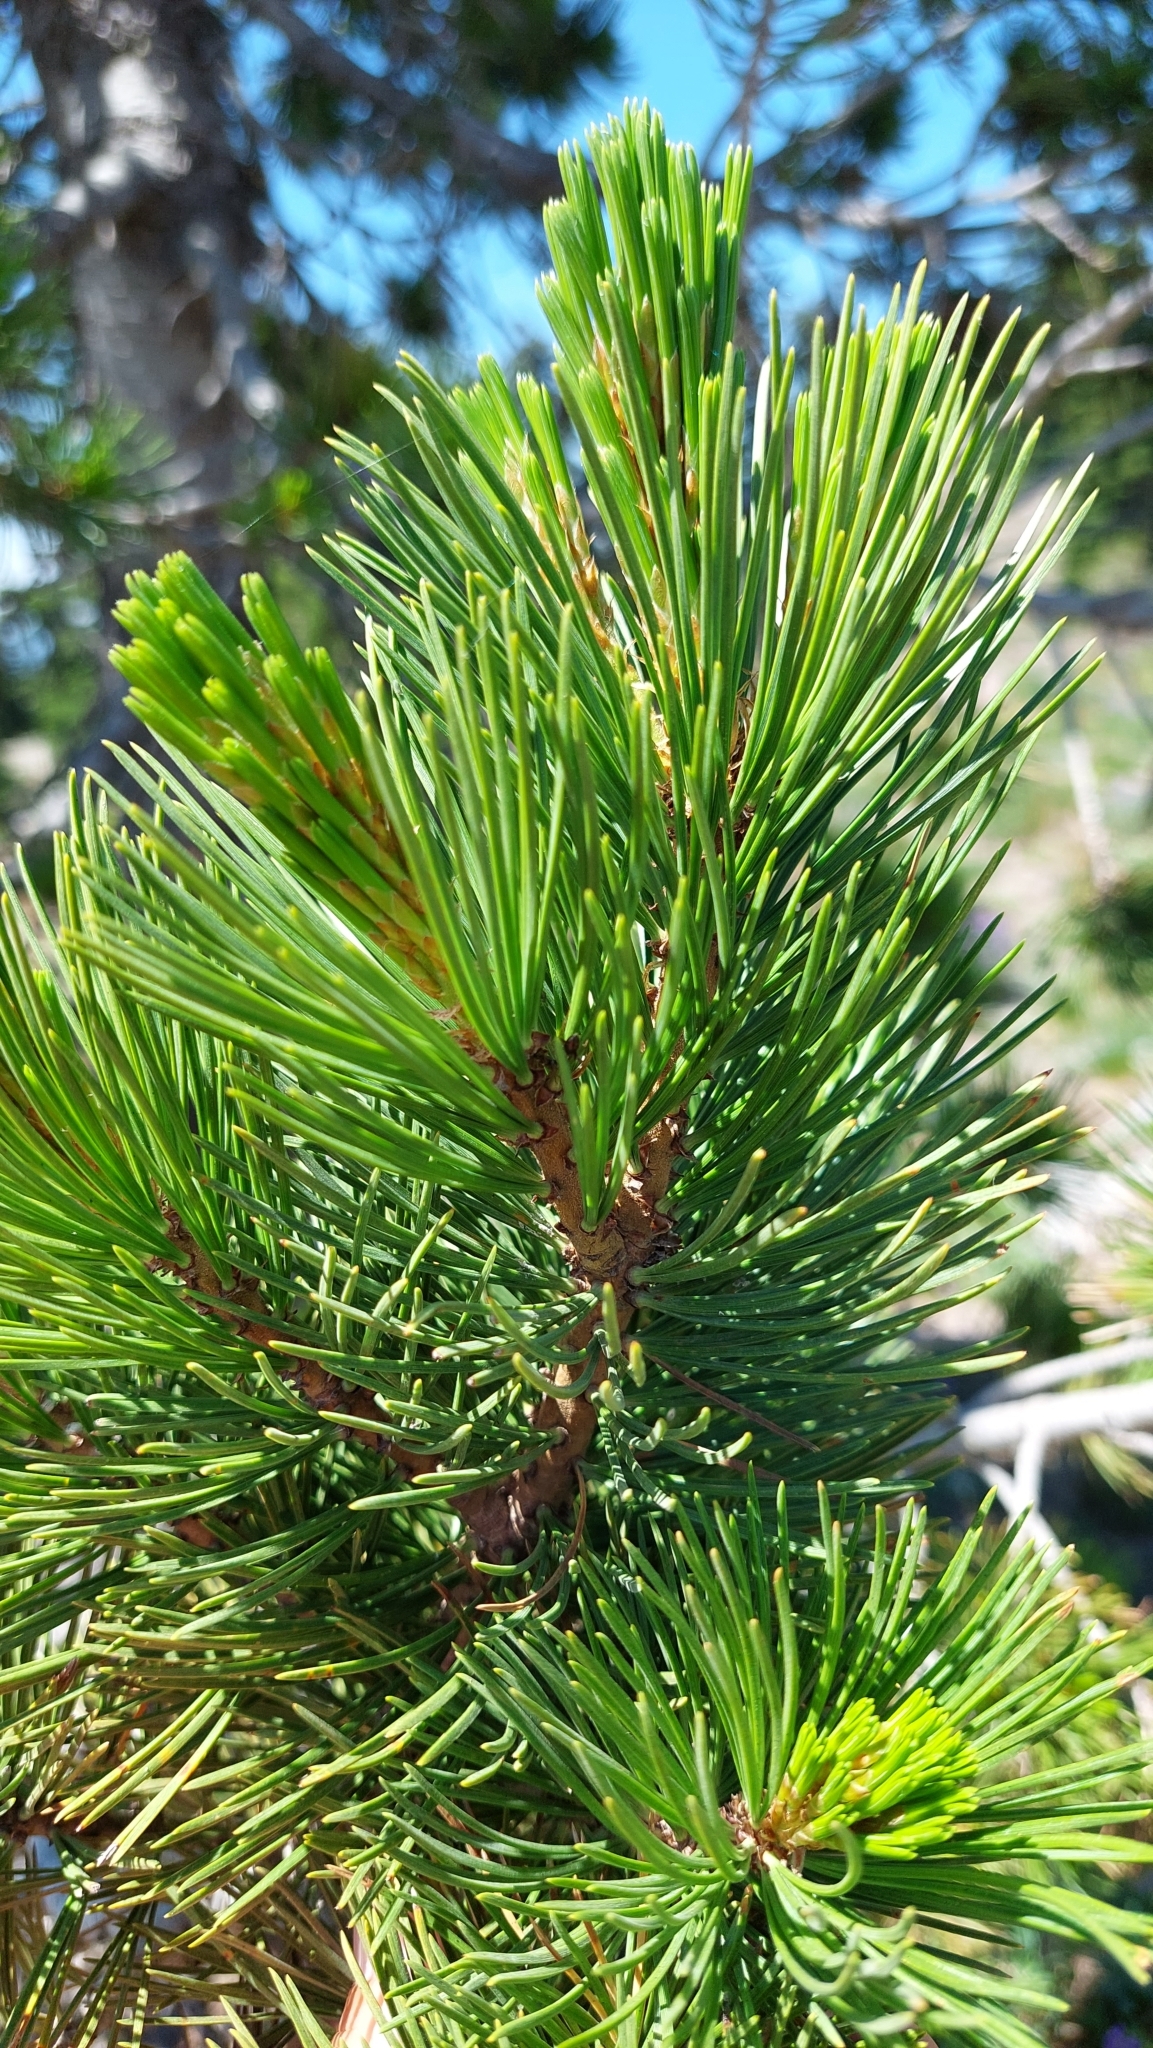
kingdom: Plantae
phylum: Tracheophyta
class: Pinopsida
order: Pinales
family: Pinaceae
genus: Pinus
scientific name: Pinus albicaulis
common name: Whitebark pine
